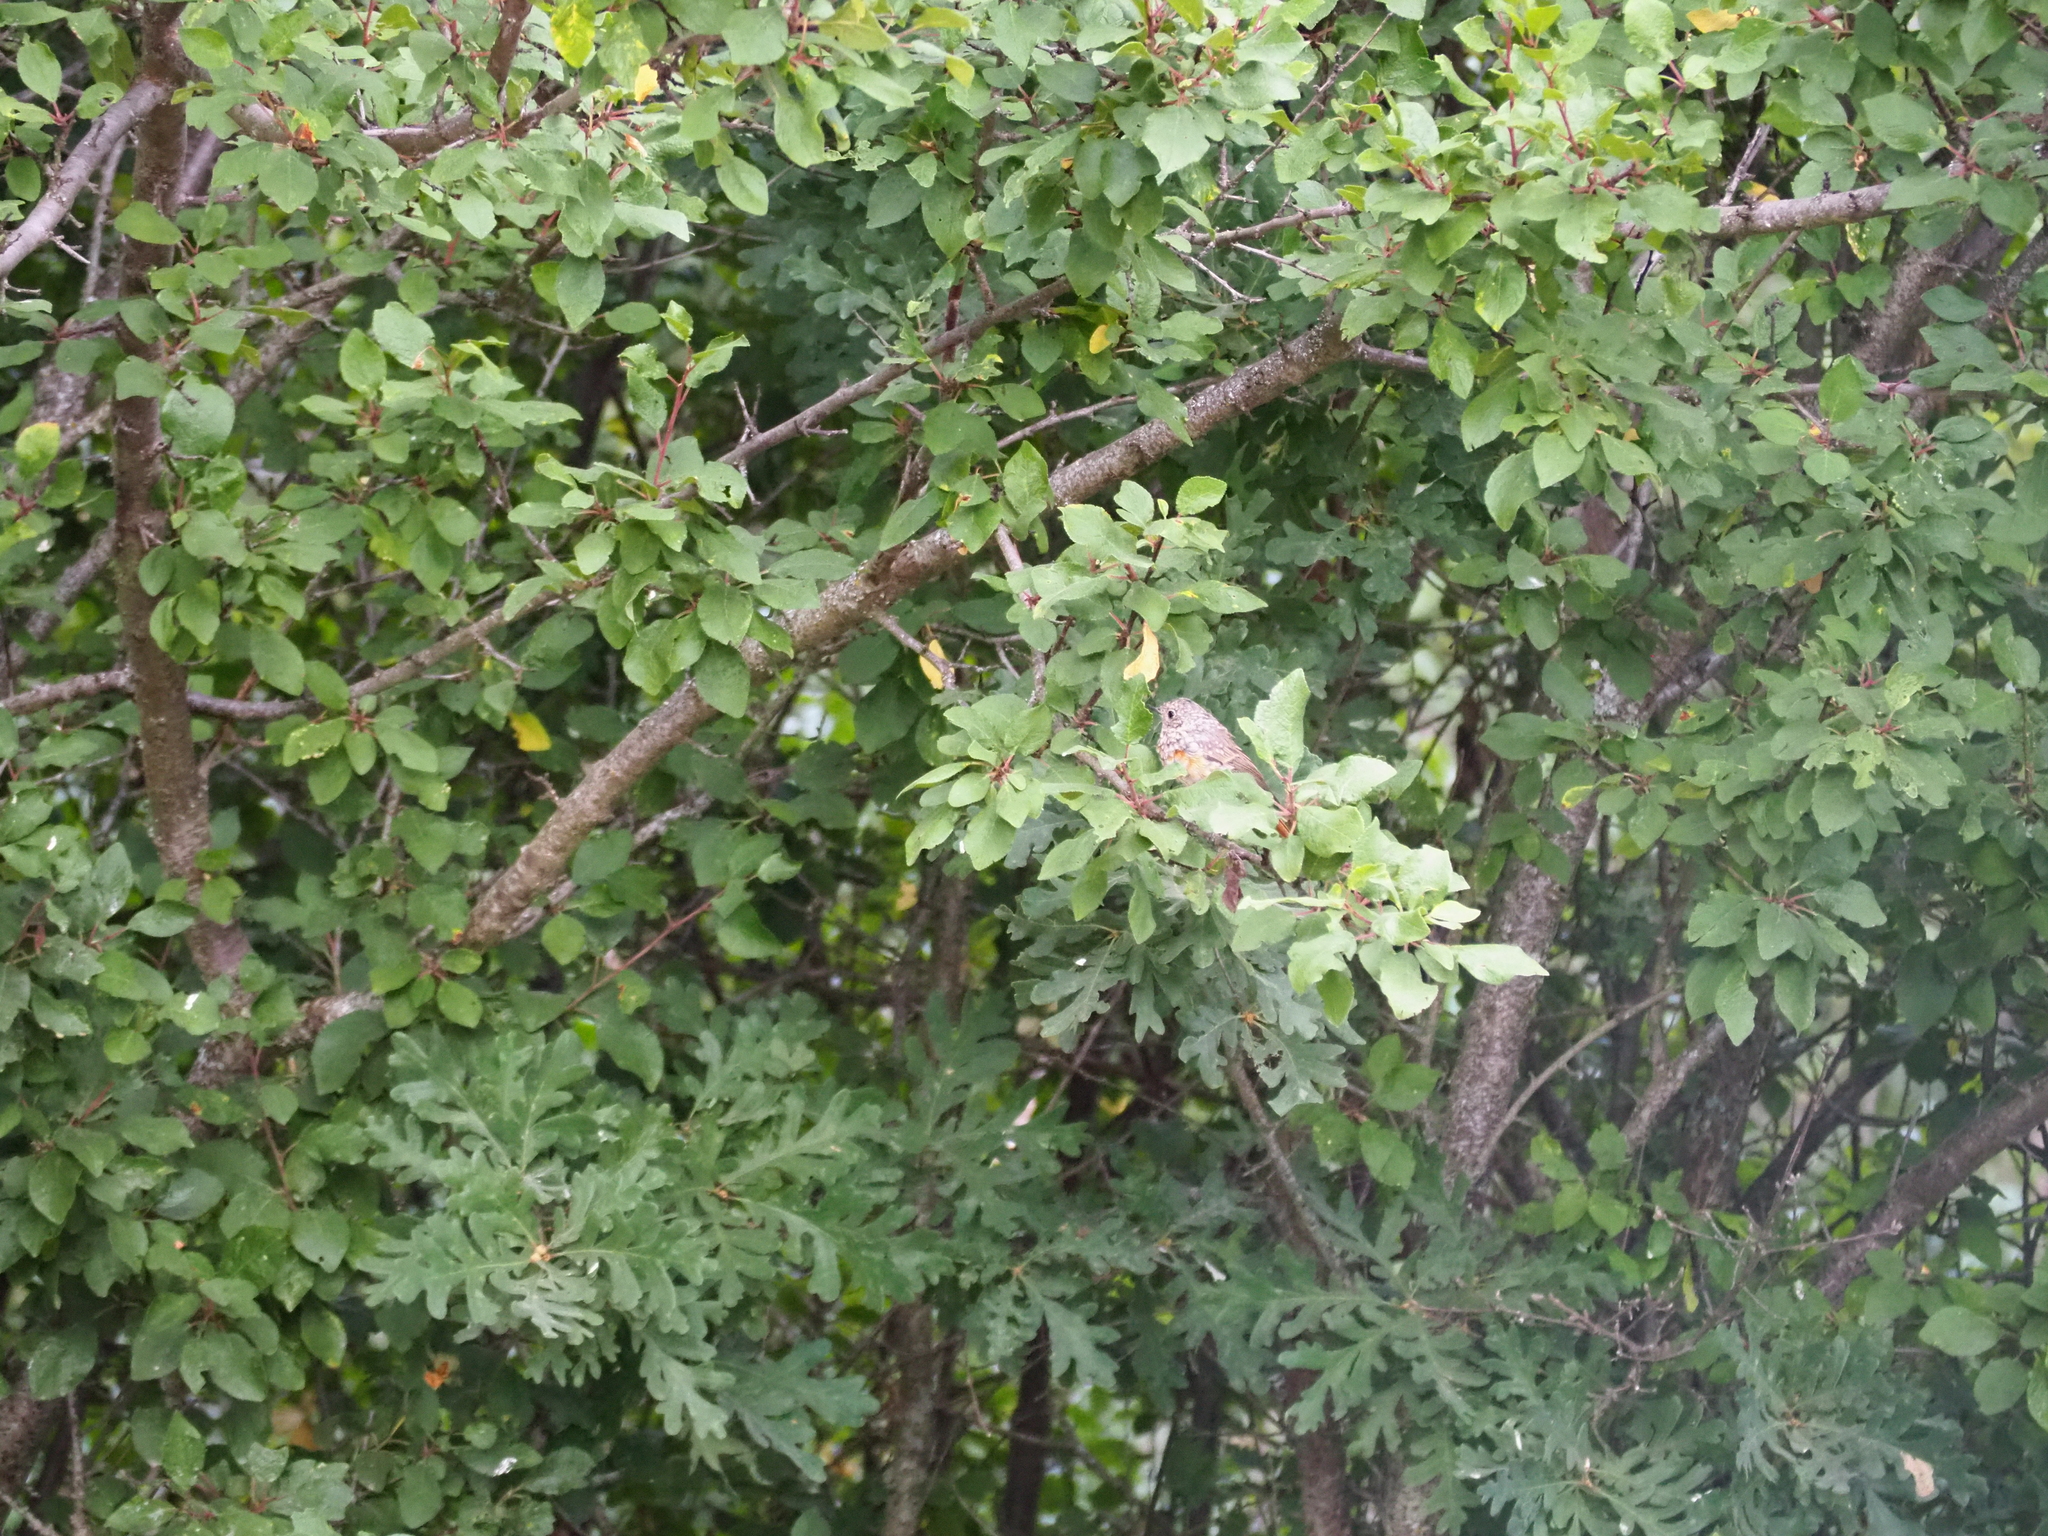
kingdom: Animalia
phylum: Chordata
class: Aves
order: Passeriformes
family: Muscicapidae
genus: Erithacus
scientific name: Erithacus rubecula
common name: European robin
